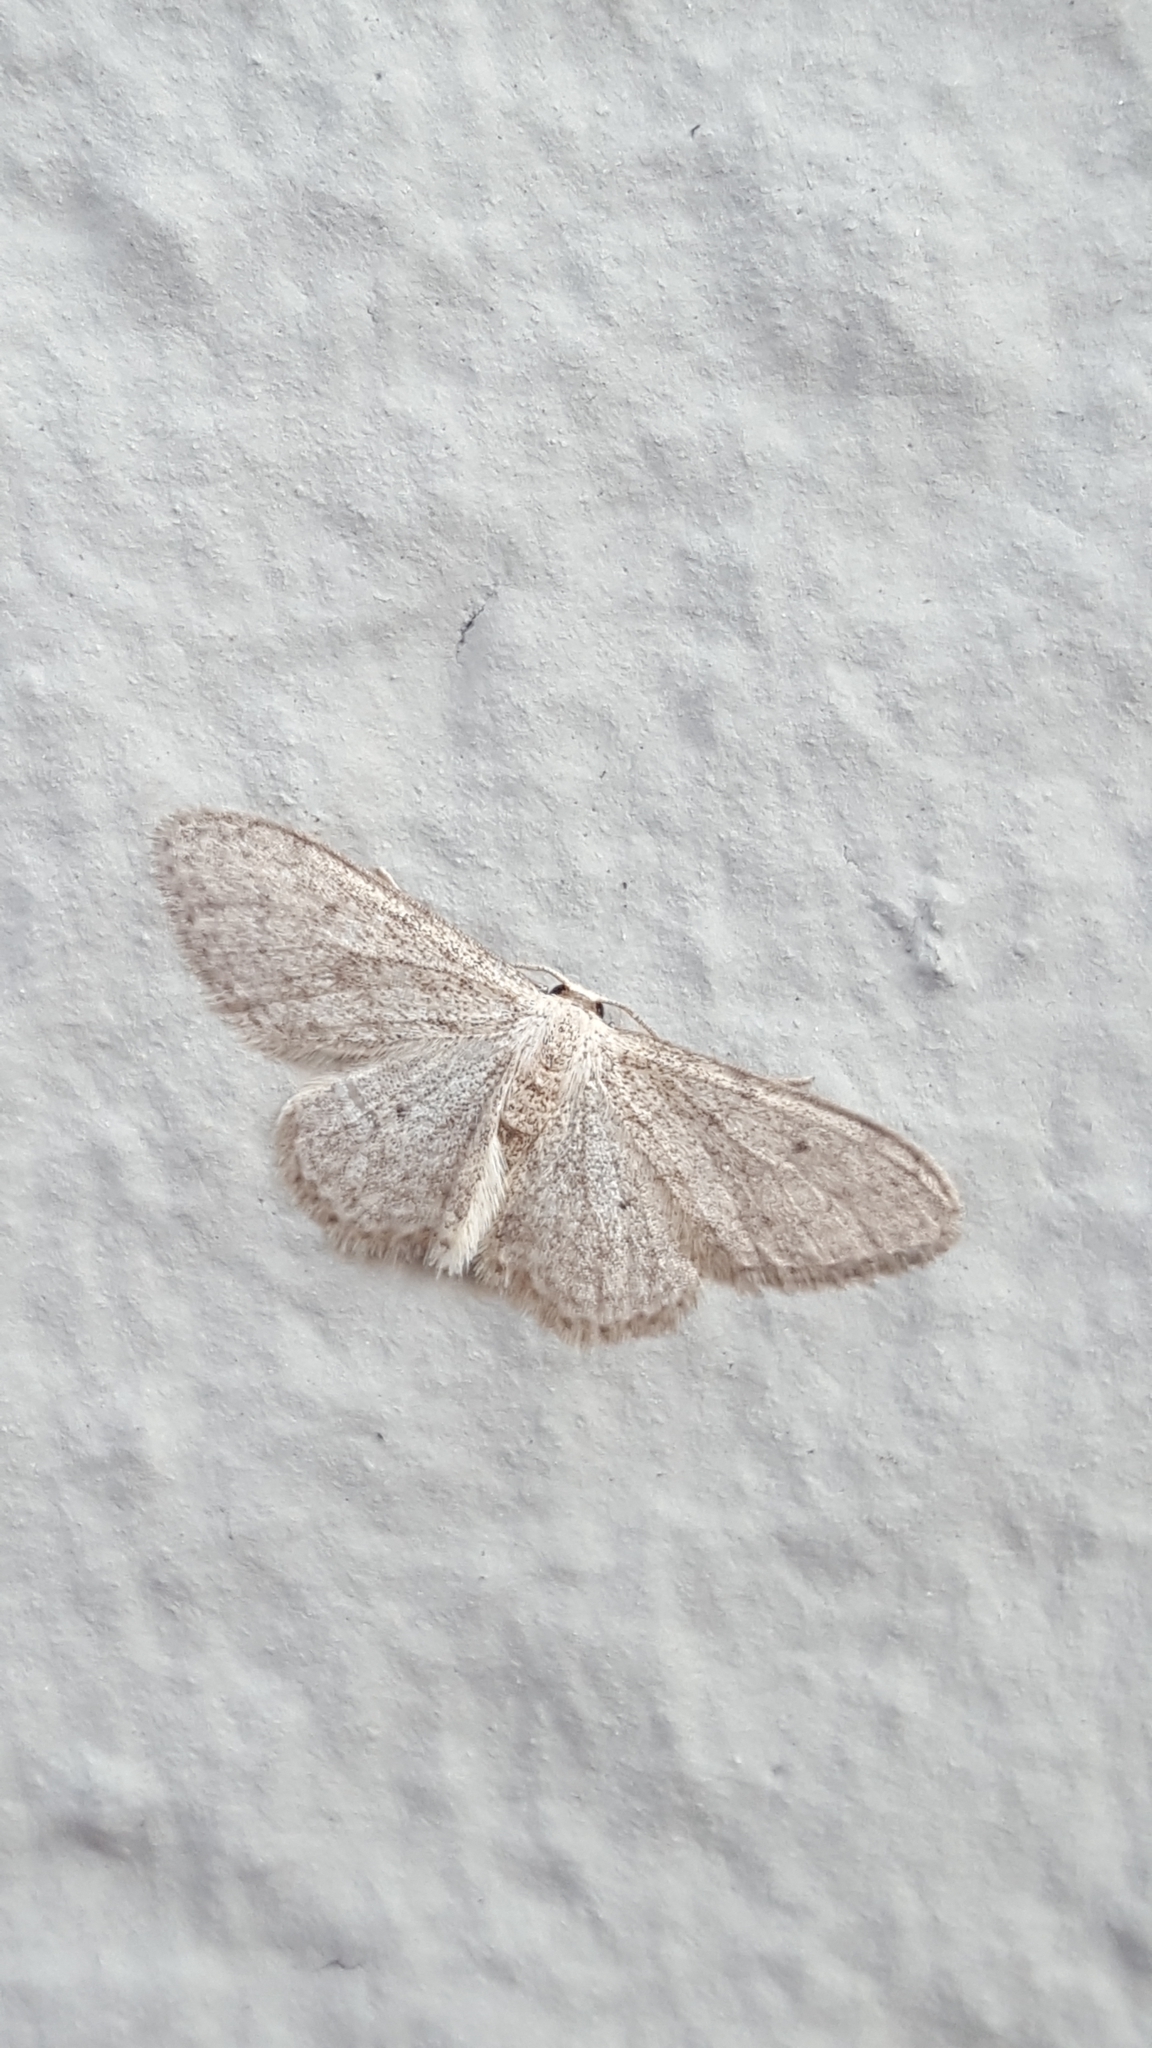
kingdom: Animalia
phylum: Arthropoda
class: Insecta
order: Lepidoptera
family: Geometridae
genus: Idaea
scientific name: Idaea seriata
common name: Small dusty wave
